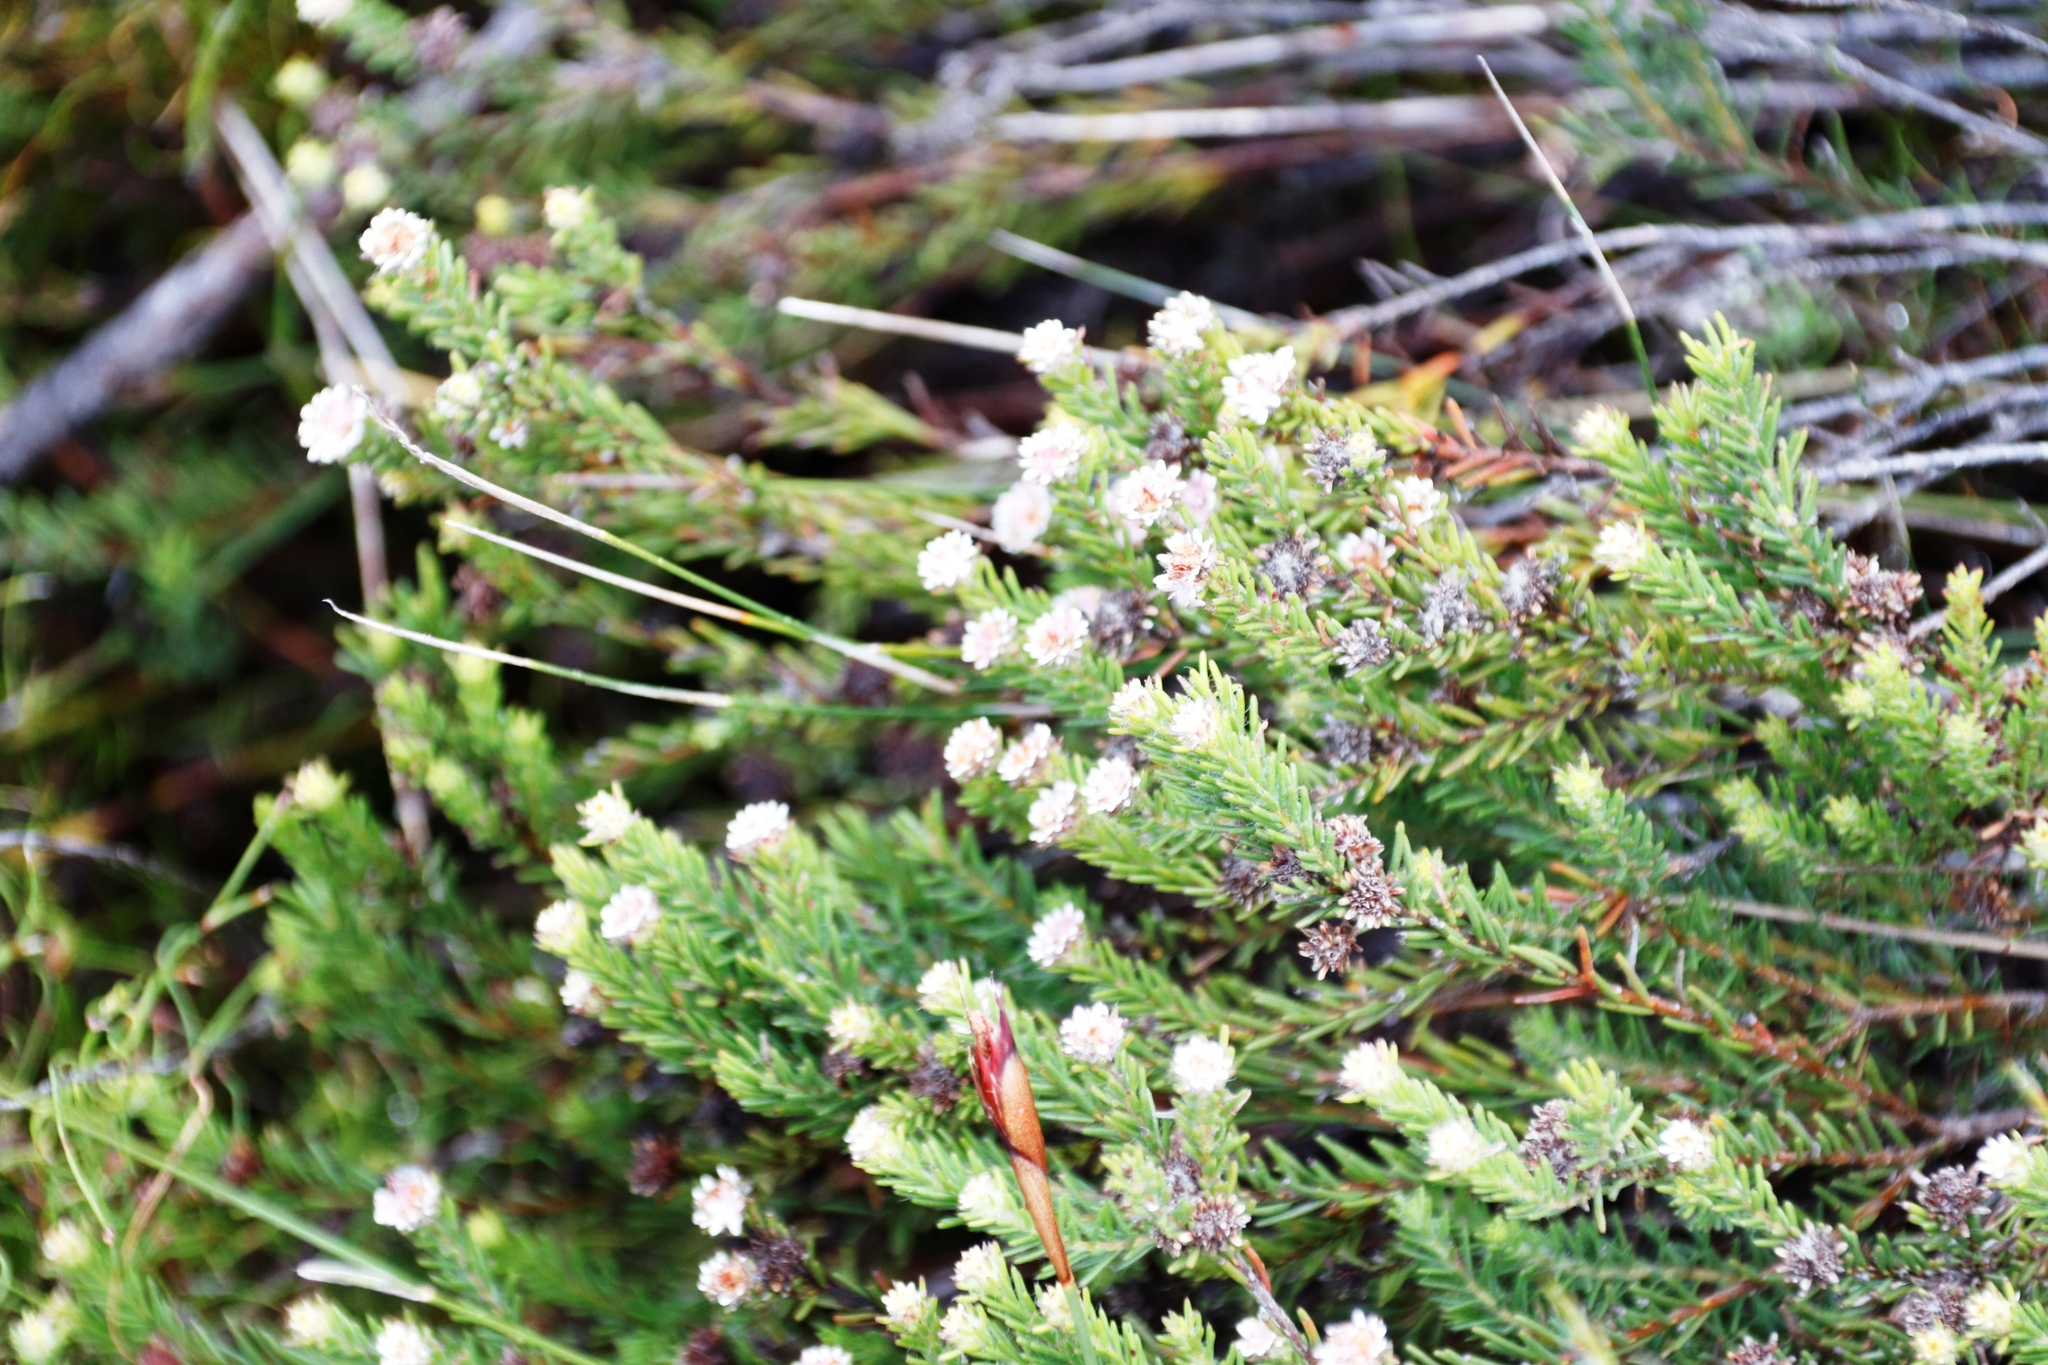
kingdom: Plantae
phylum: Tracheophyta
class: Magnoliopsida
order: Bruniales
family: Bruniaceae
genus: Staavia
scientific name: Staavia radiata
